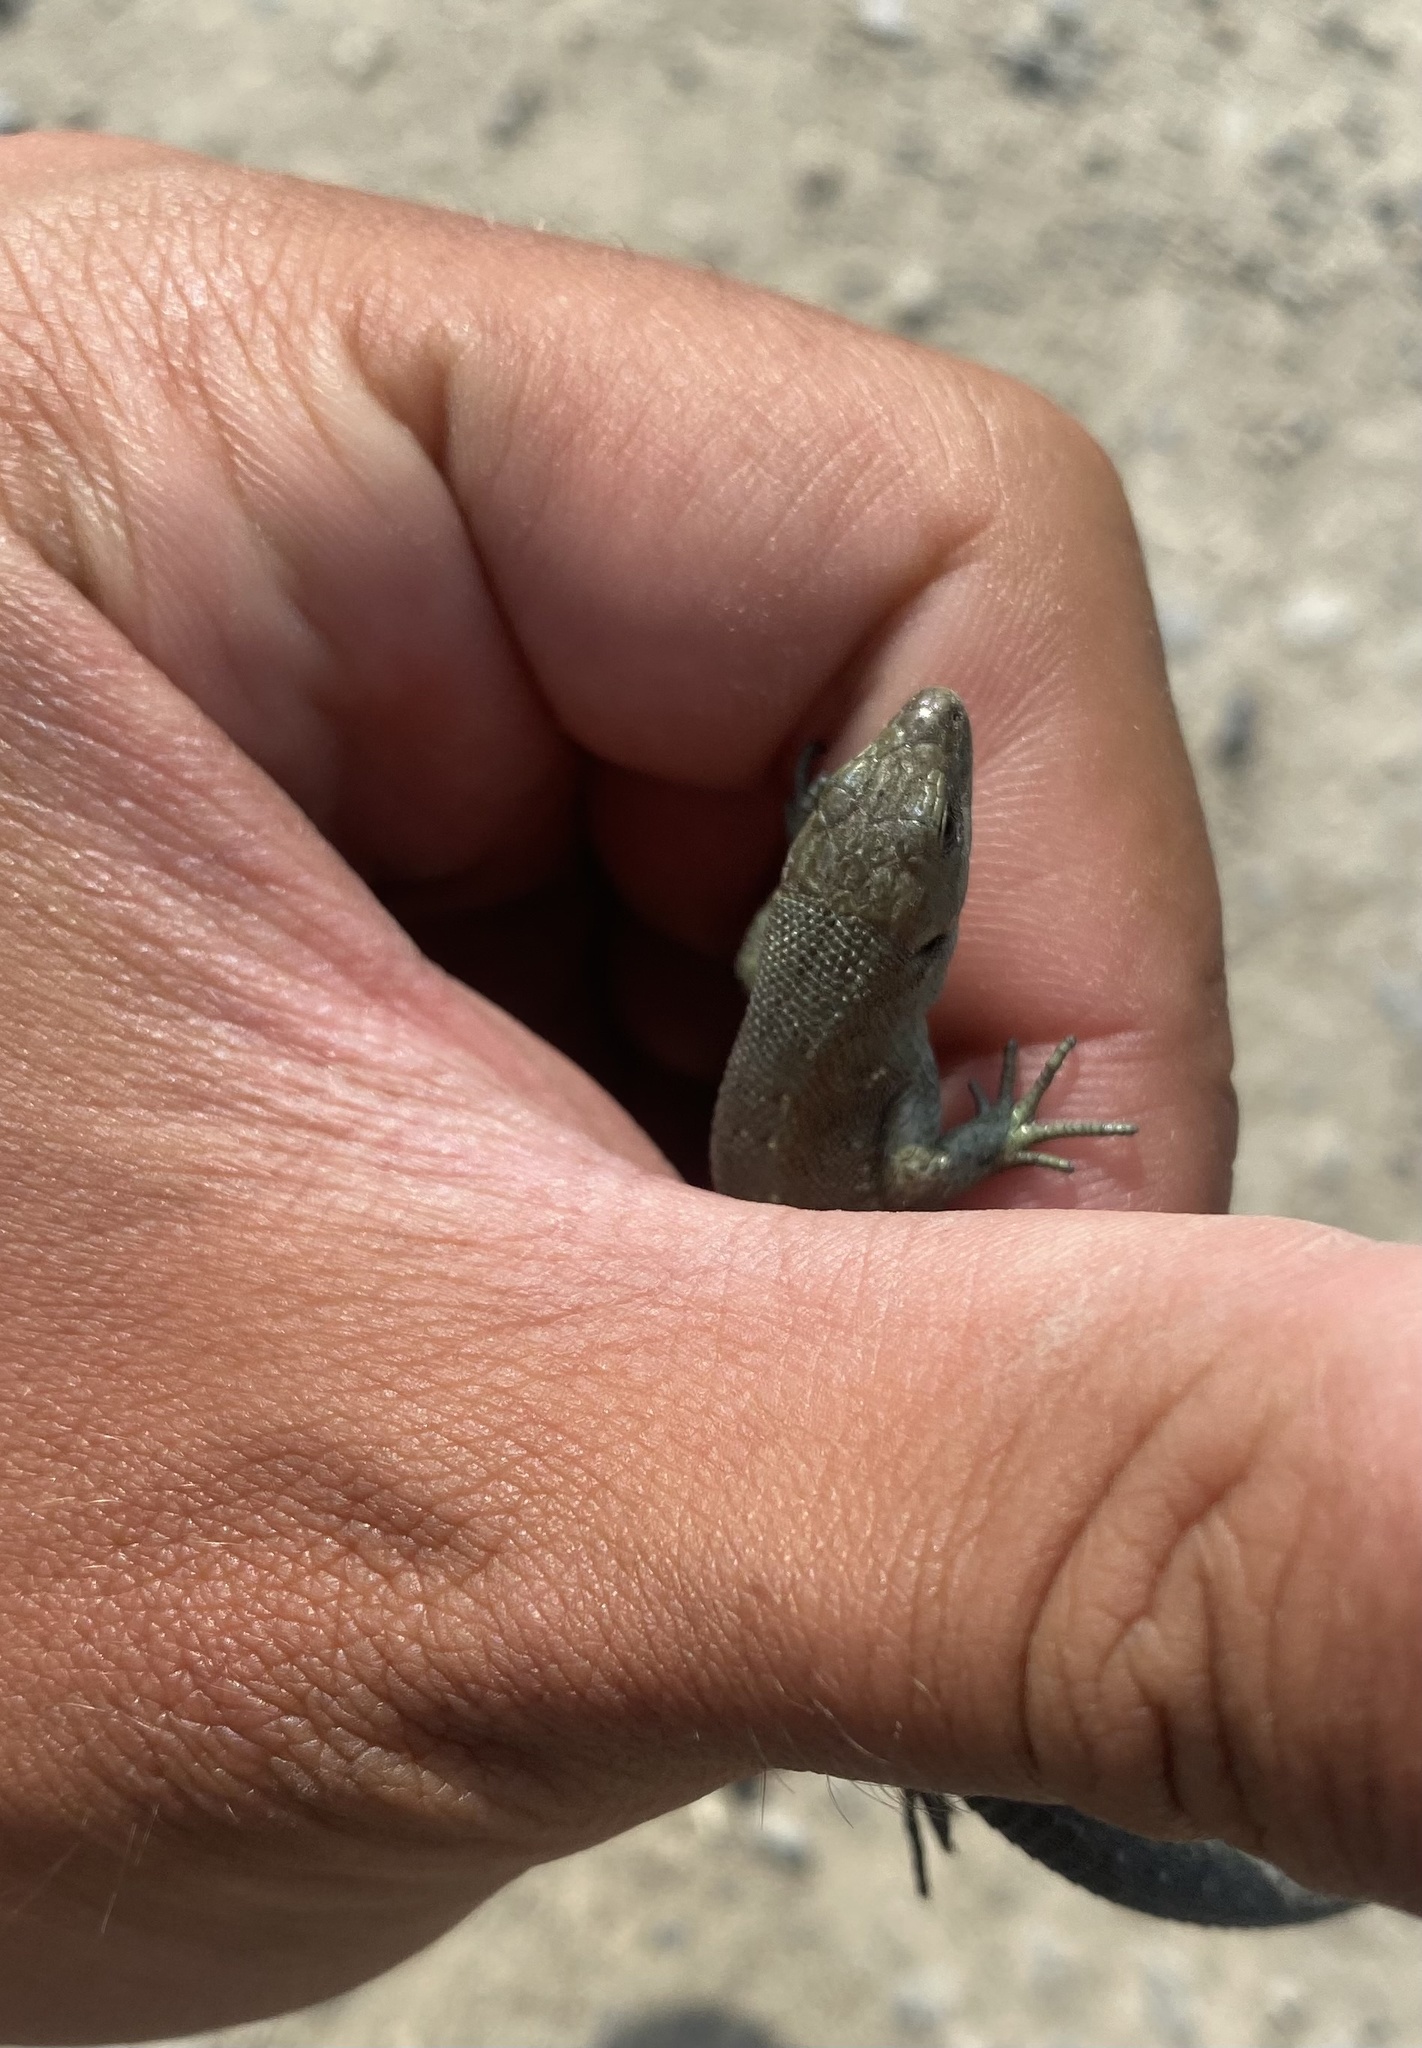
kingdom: Animalia
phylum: Chordata
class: Squamata
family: Lacertidae
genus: Zootoca
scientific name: Zootoca vivipara
